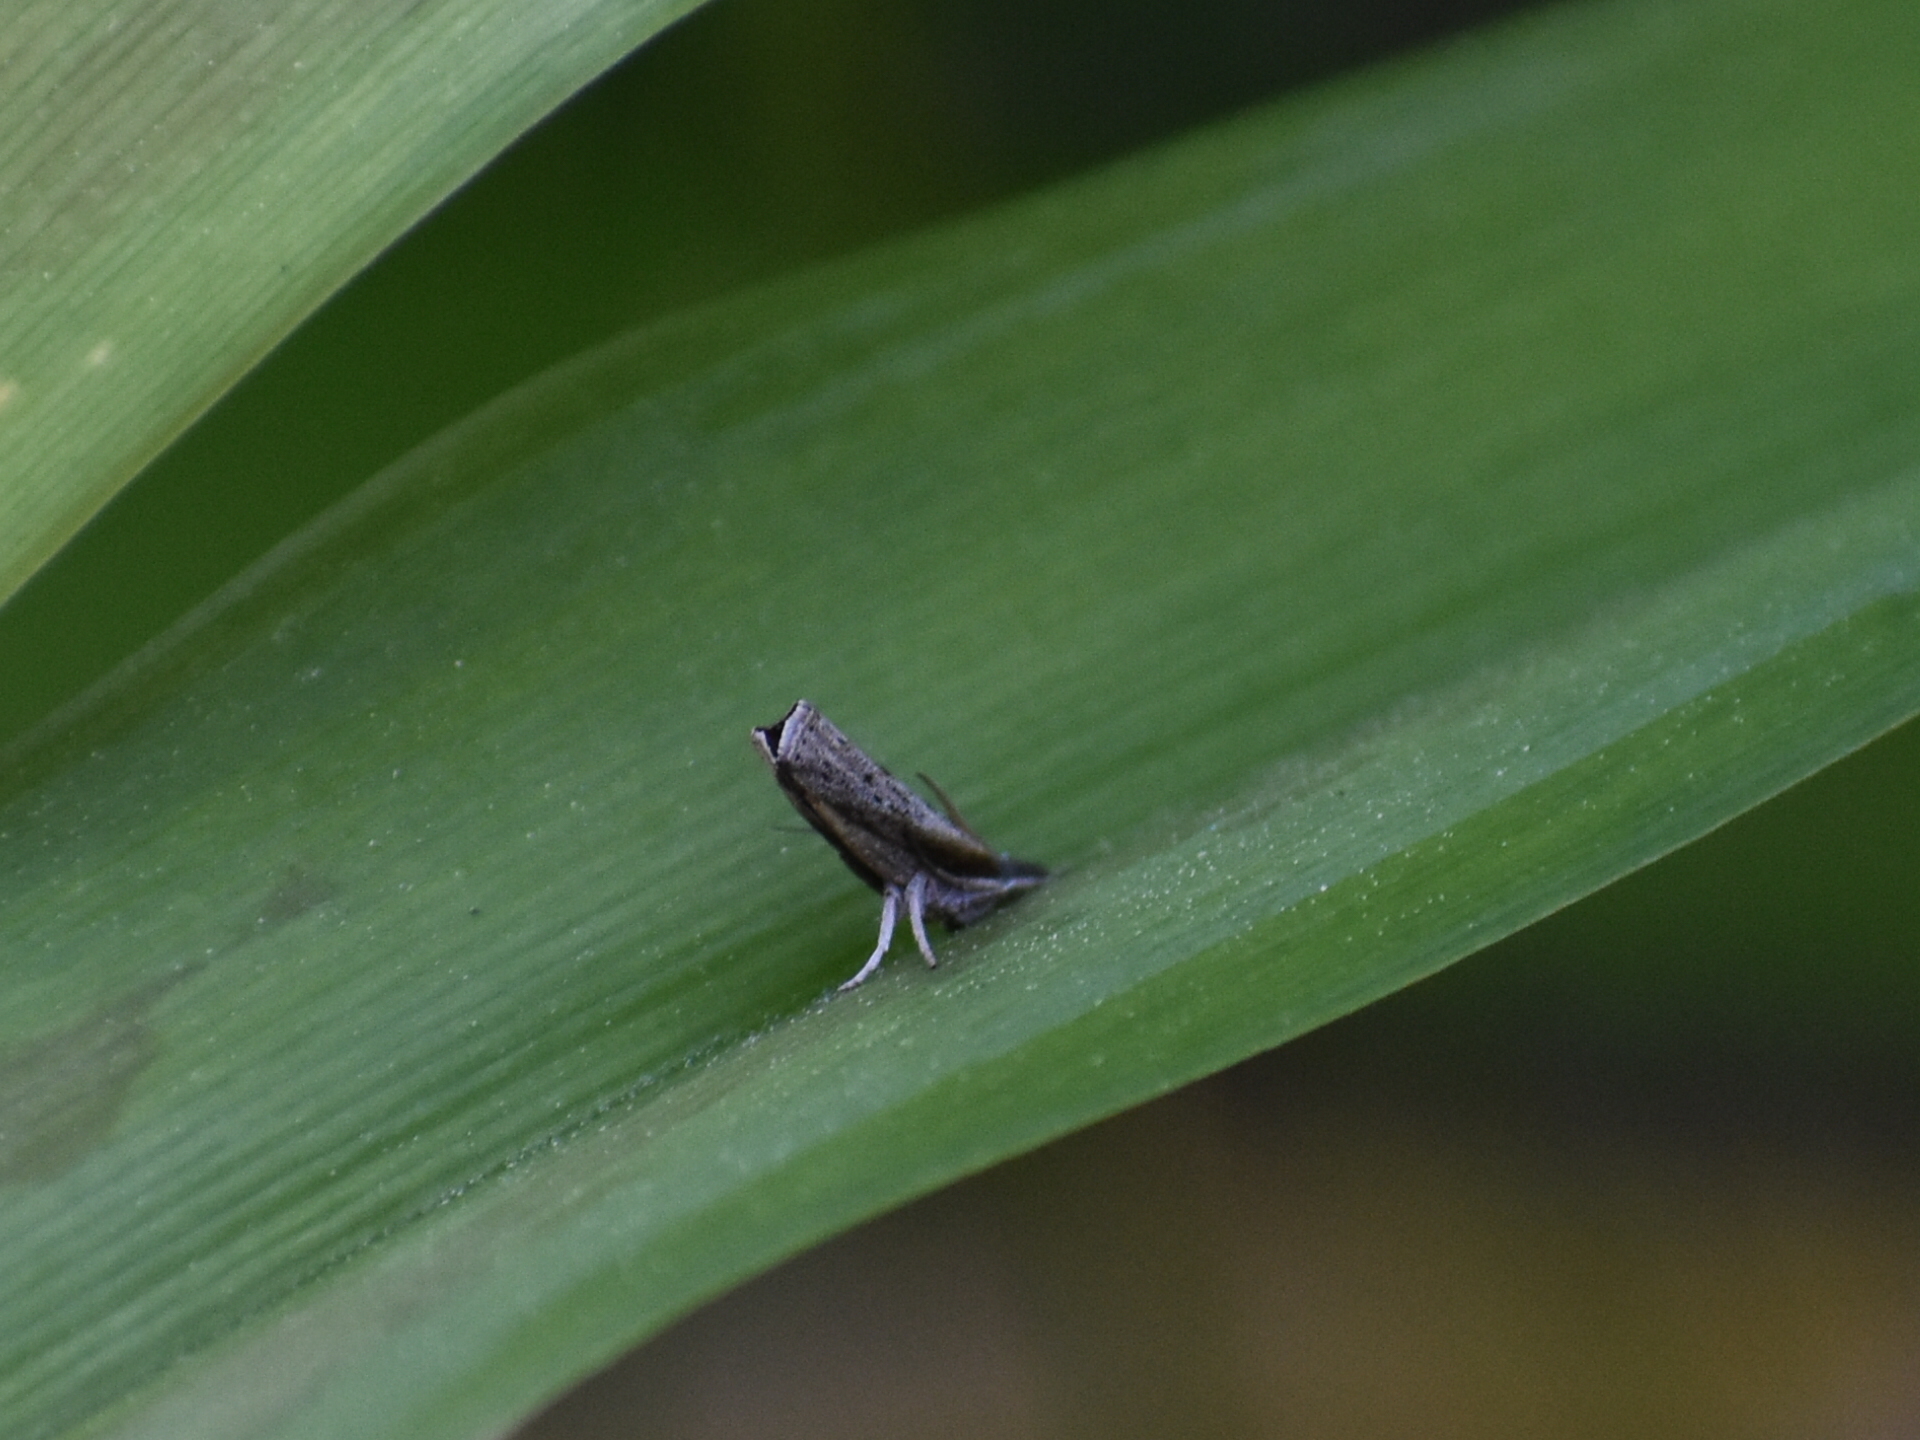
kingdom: Animalia
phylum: Arthropoda
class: Insecta
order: Lepidoptera
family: Crambidae
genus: Fissicrambus
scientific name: Fissicrambus mutabilis
